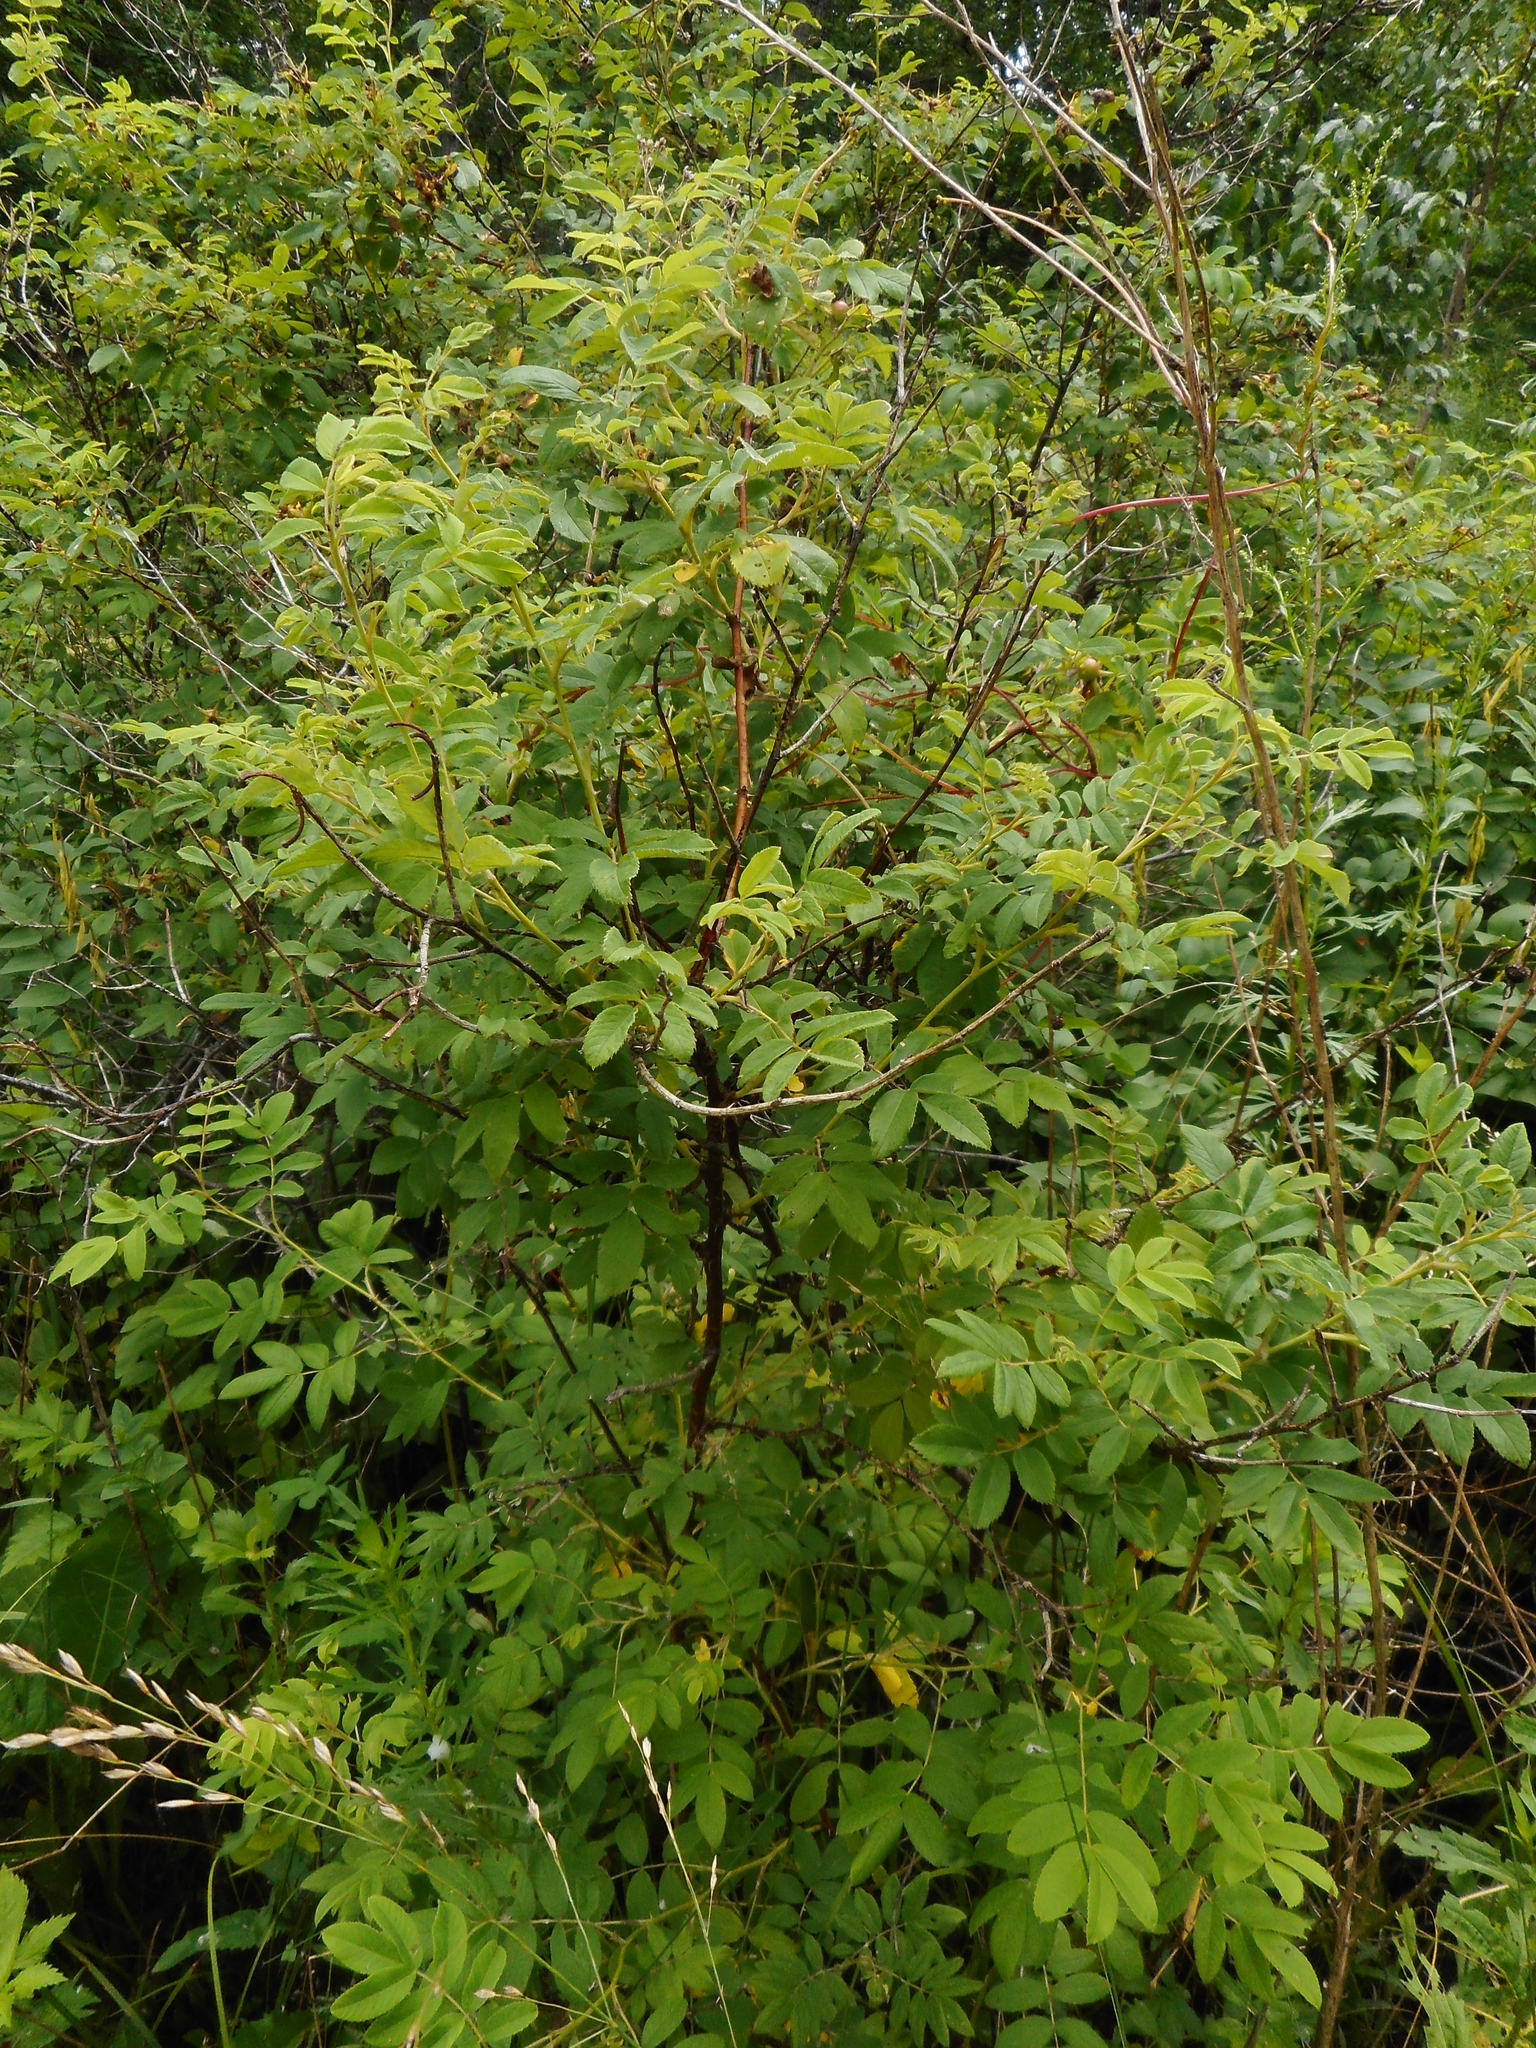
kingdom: Plantae
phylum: Tracheophyta
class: Magnoliopsida
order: Rosales
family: Rosaceae
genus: Rosa
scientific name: Rosa davurica
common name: Amur rose
